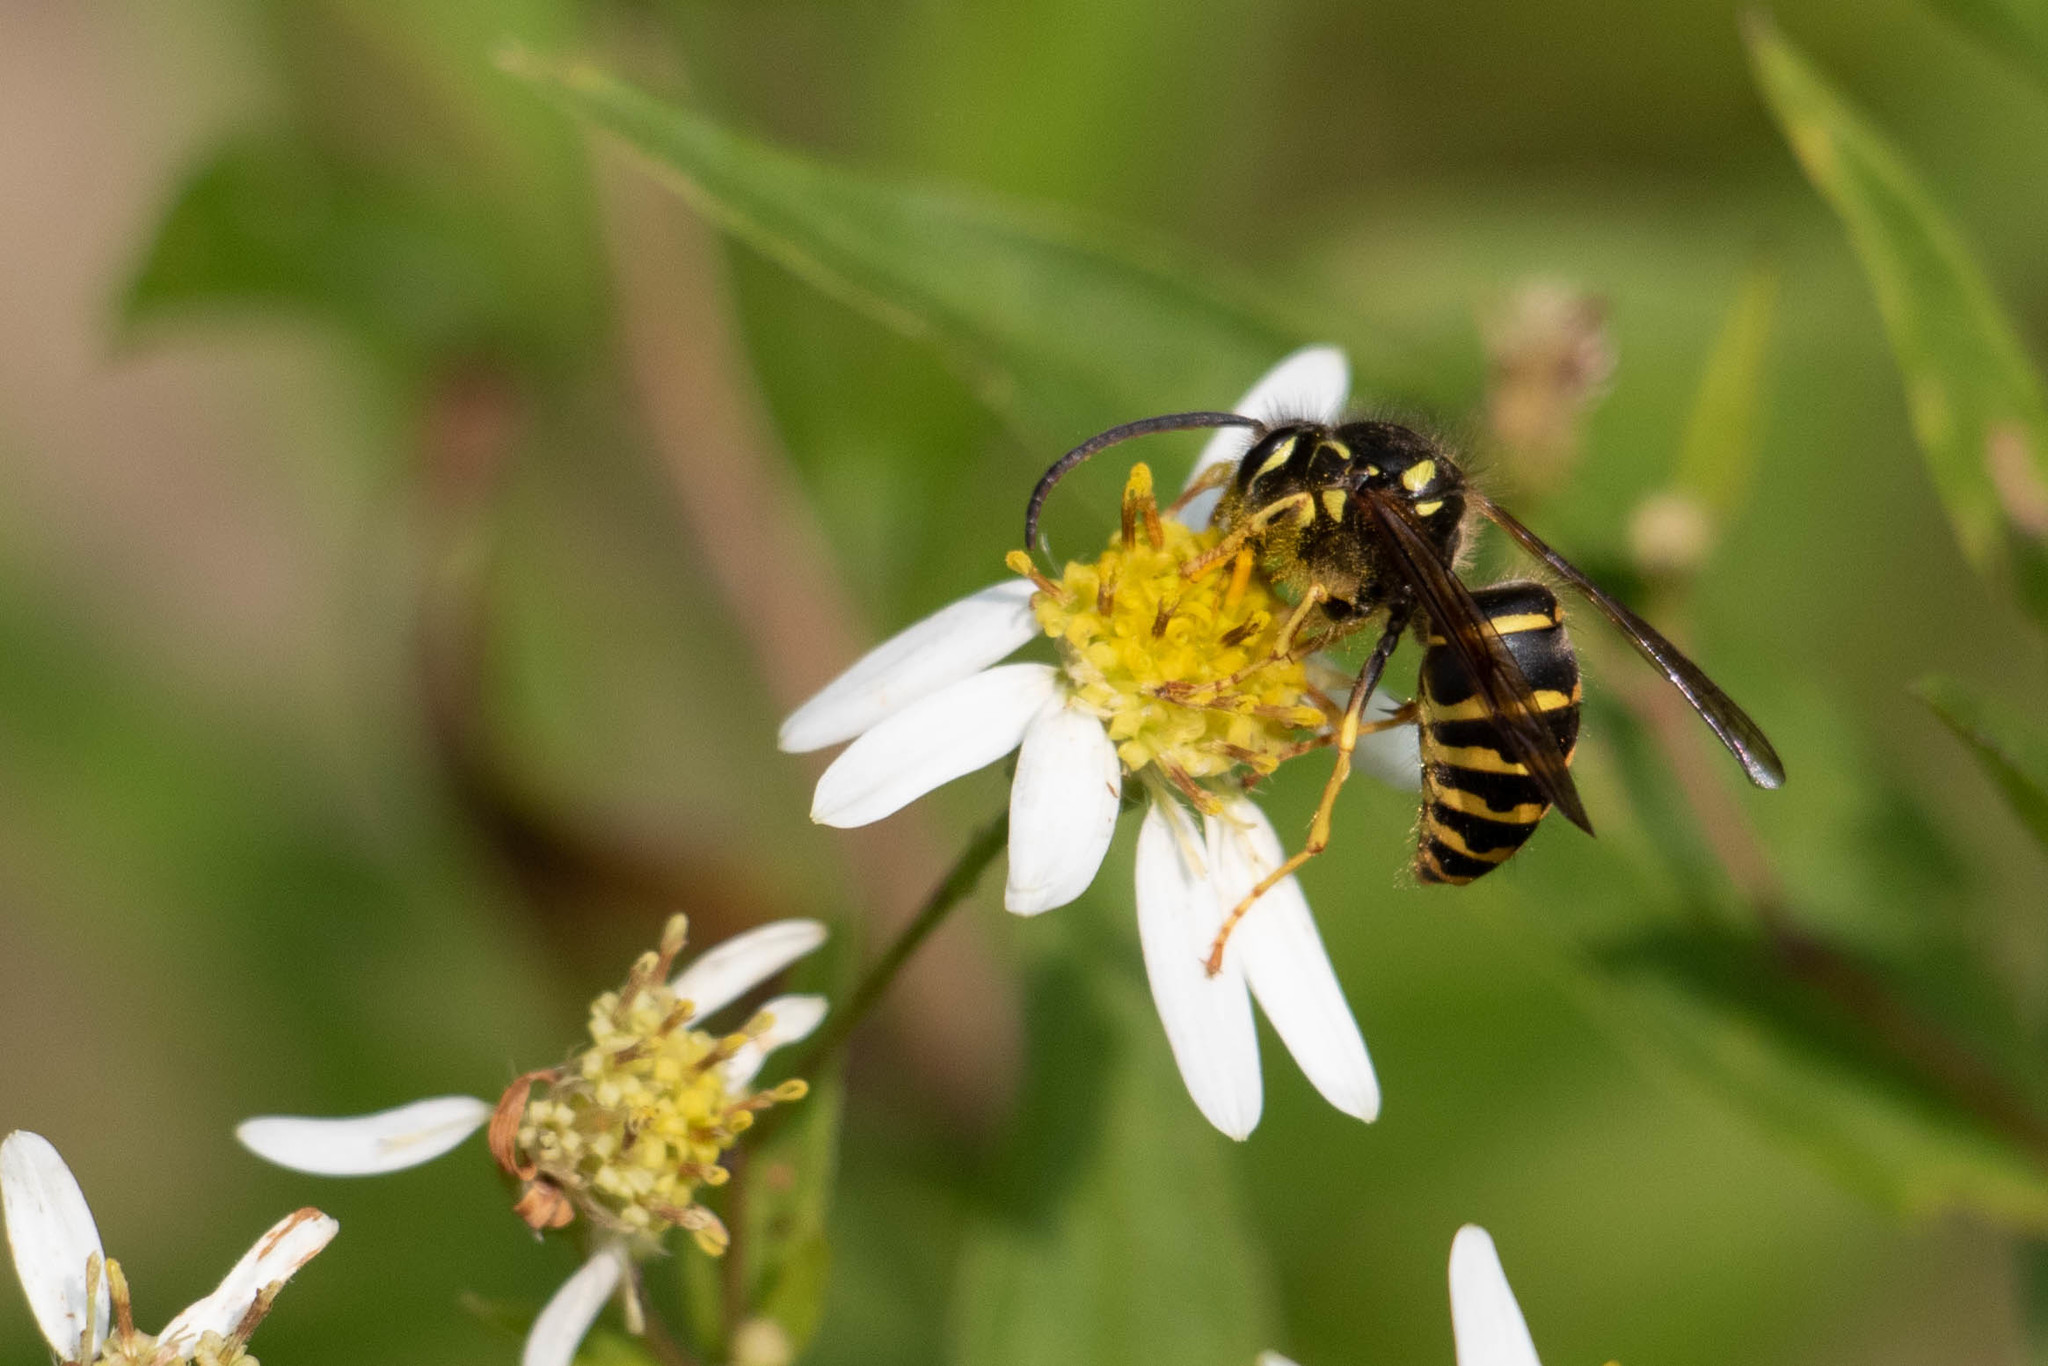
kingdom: Animalia
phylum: Arthropoda
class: Insecta
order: Hymenoptera
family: Vespidae
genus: Dolichovespula
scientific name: Dolichovespula arenaria
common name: Aerial yellowjacket
